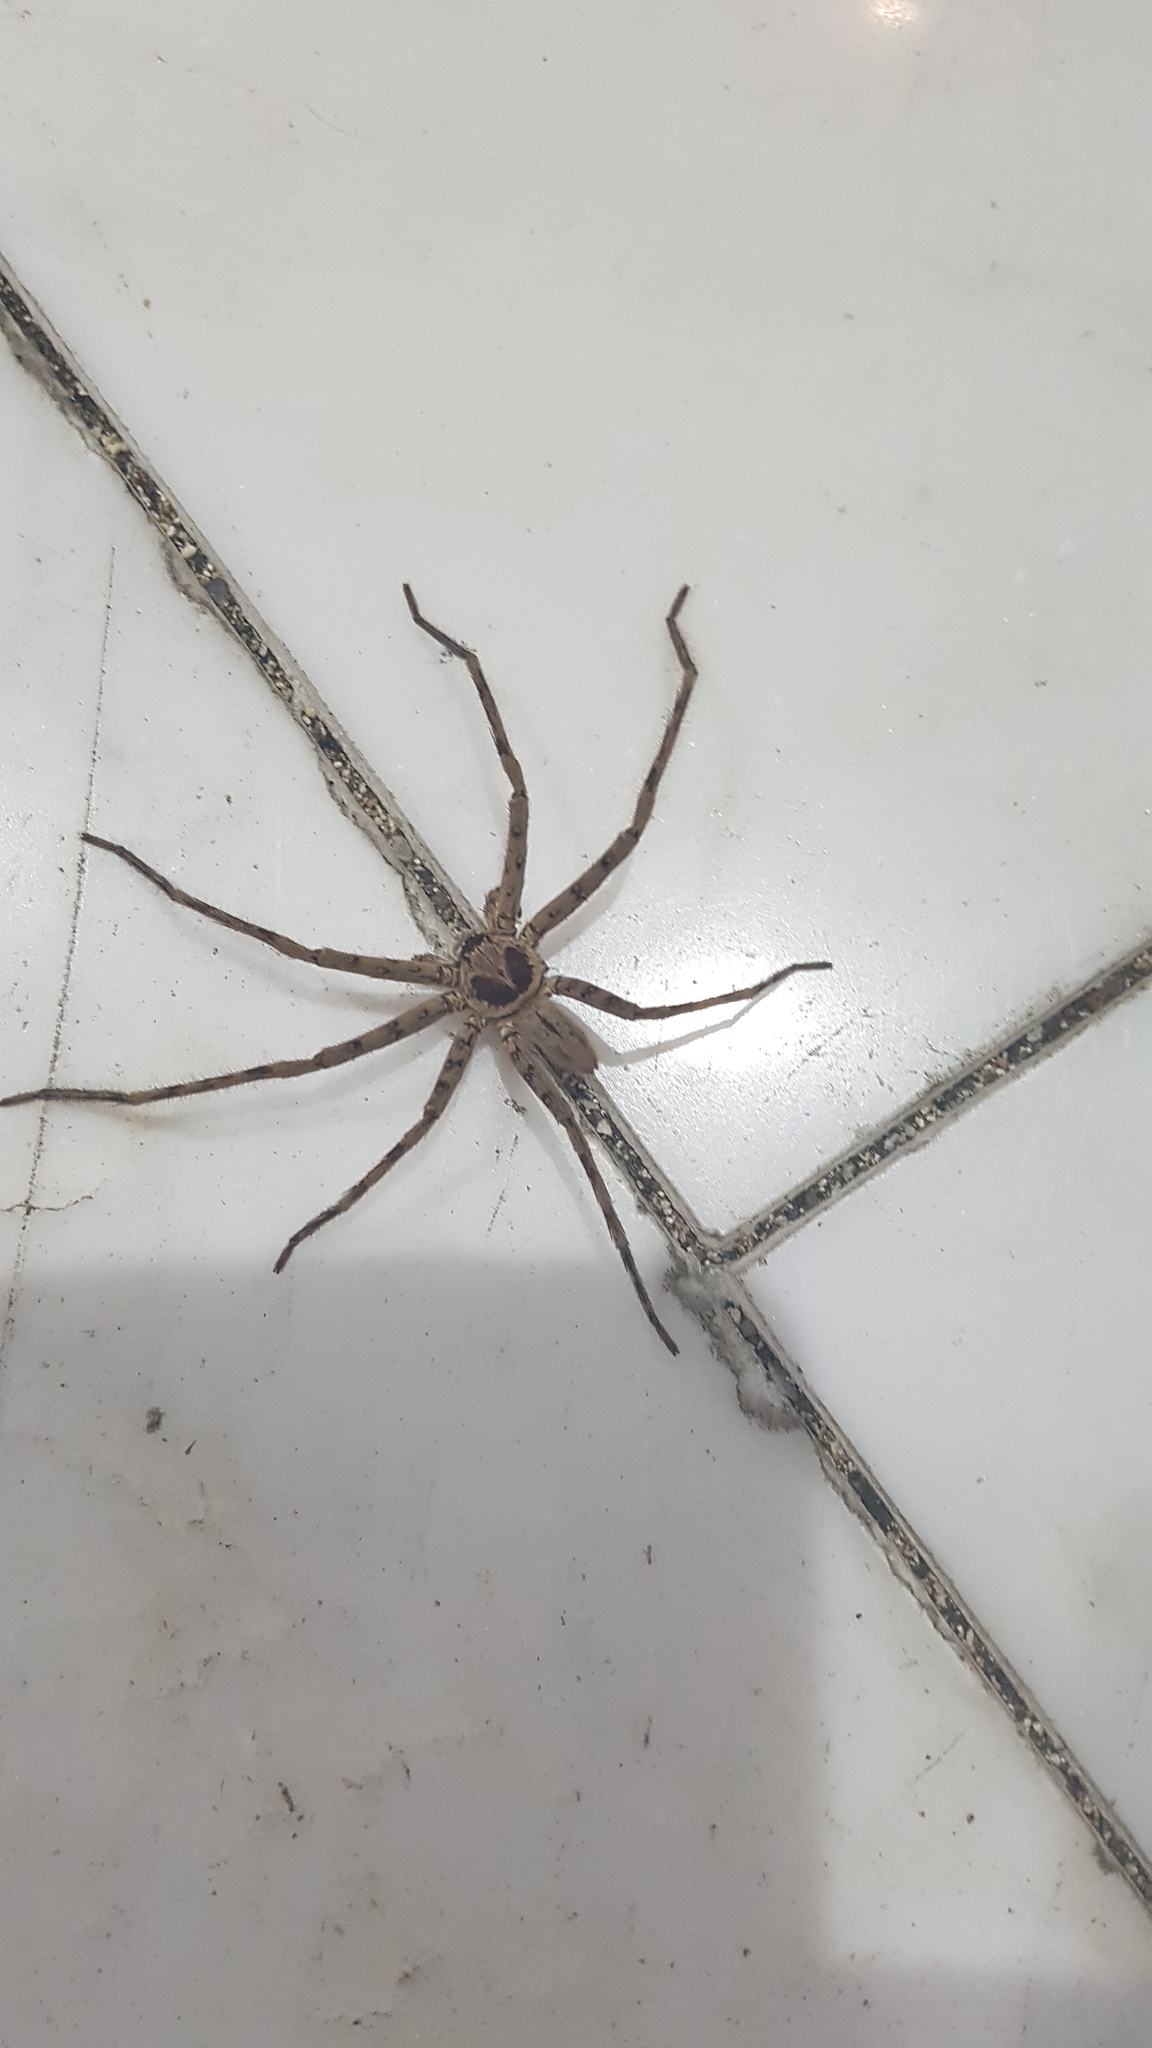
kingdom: Animalia
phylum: Arthropoda
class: Arachnida
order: Araneae
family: Sparassidae
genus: Heteropoda
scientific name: Heteropoda venatoria
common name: Huntsman spider
